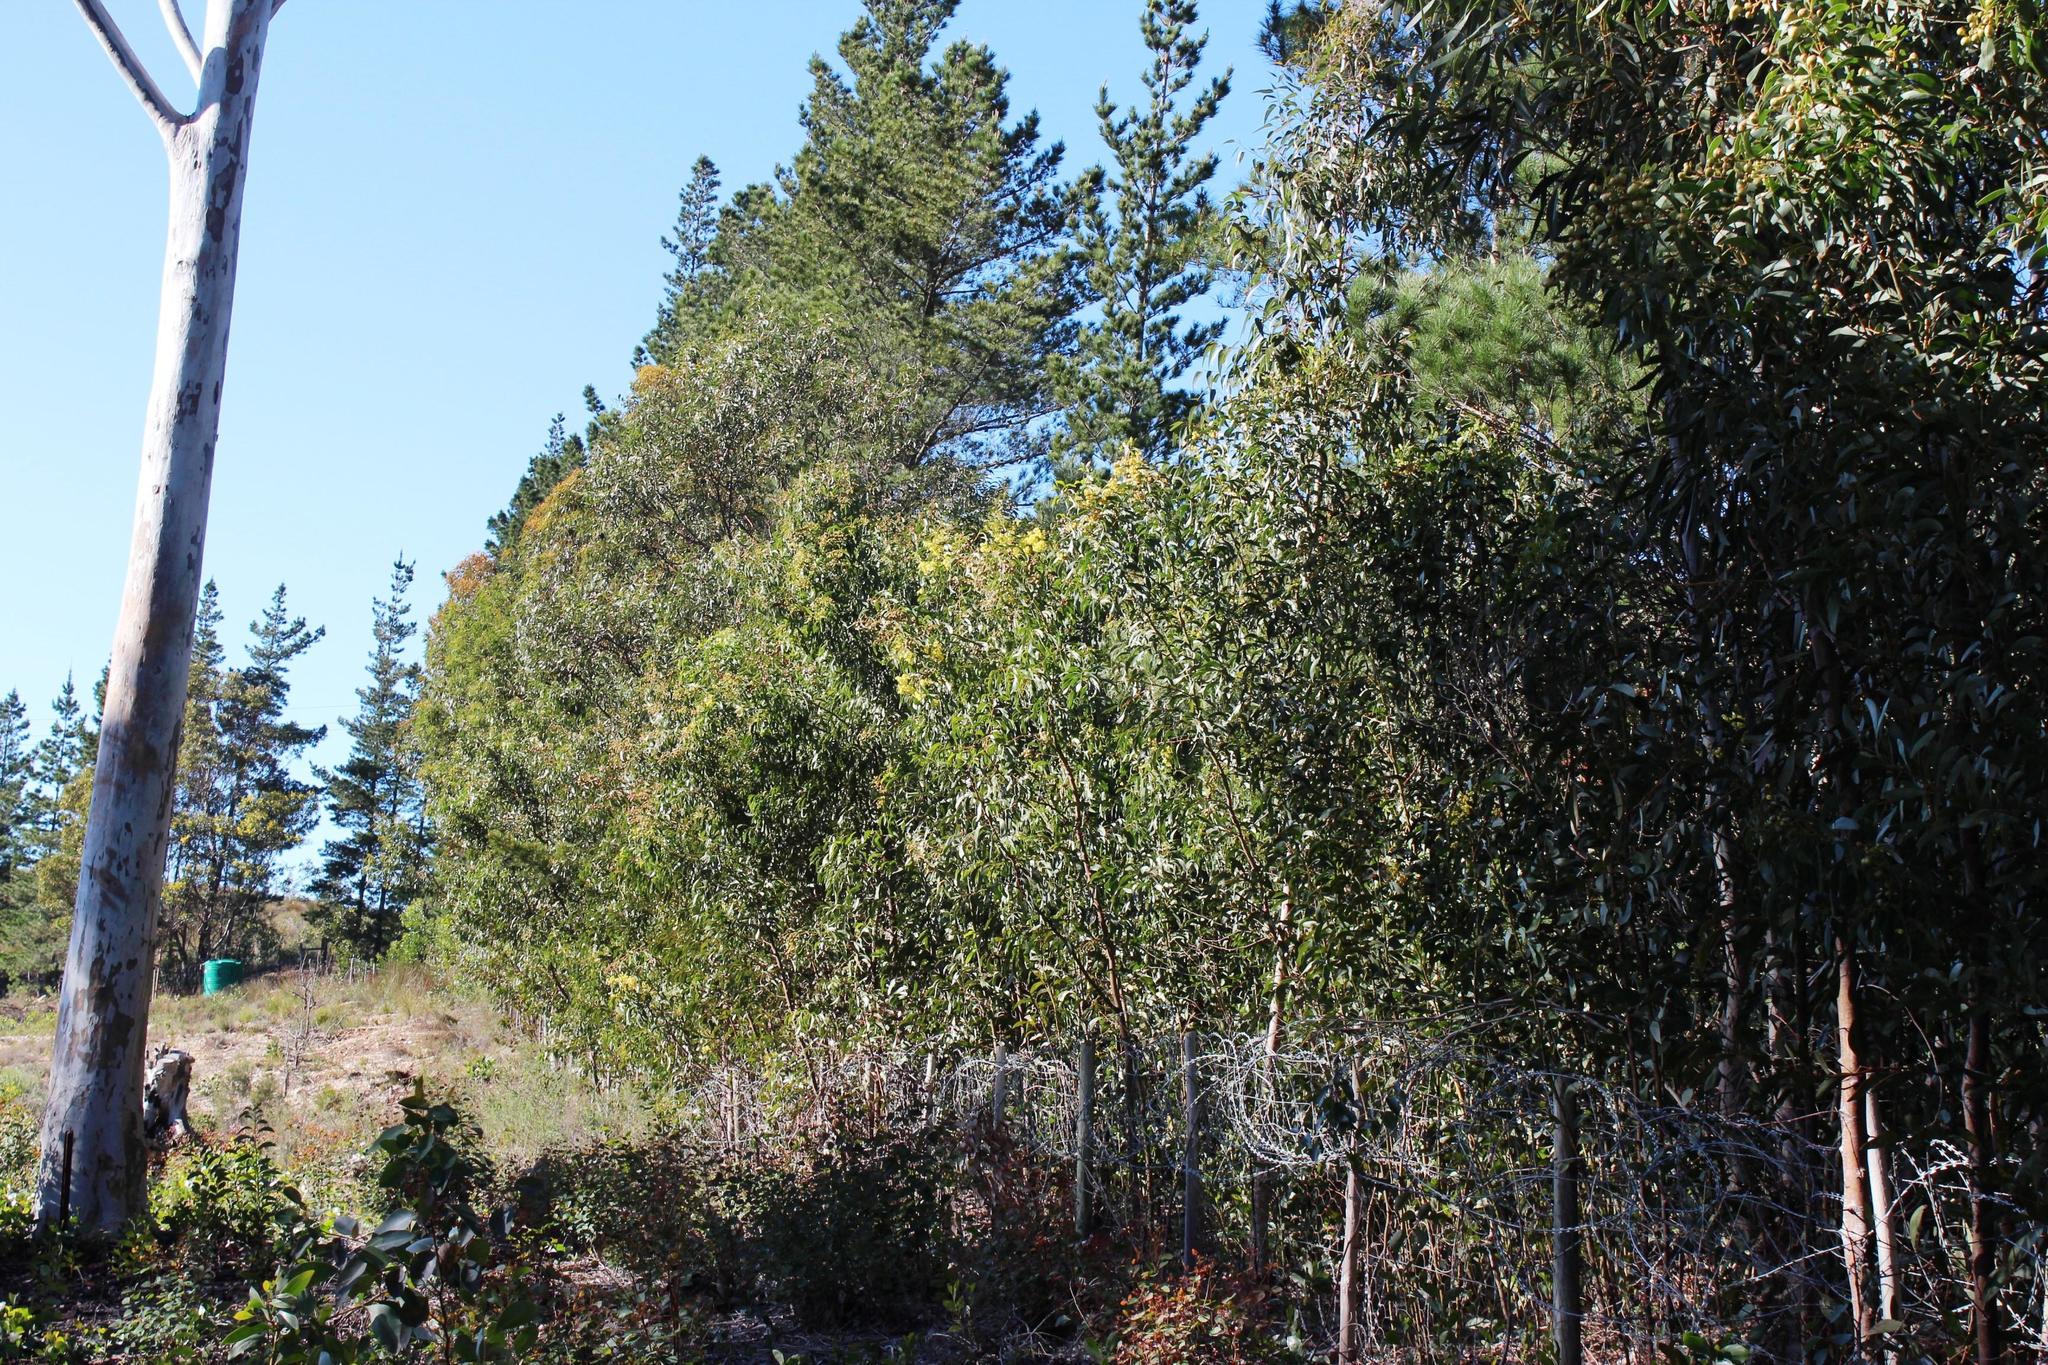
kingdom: Plantae
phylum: Tracheophyta
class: Magnoliopsida
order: Fabales
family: Fabaceae
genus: Acacia
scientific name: Acacia pycnantha
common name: Golden wattle
